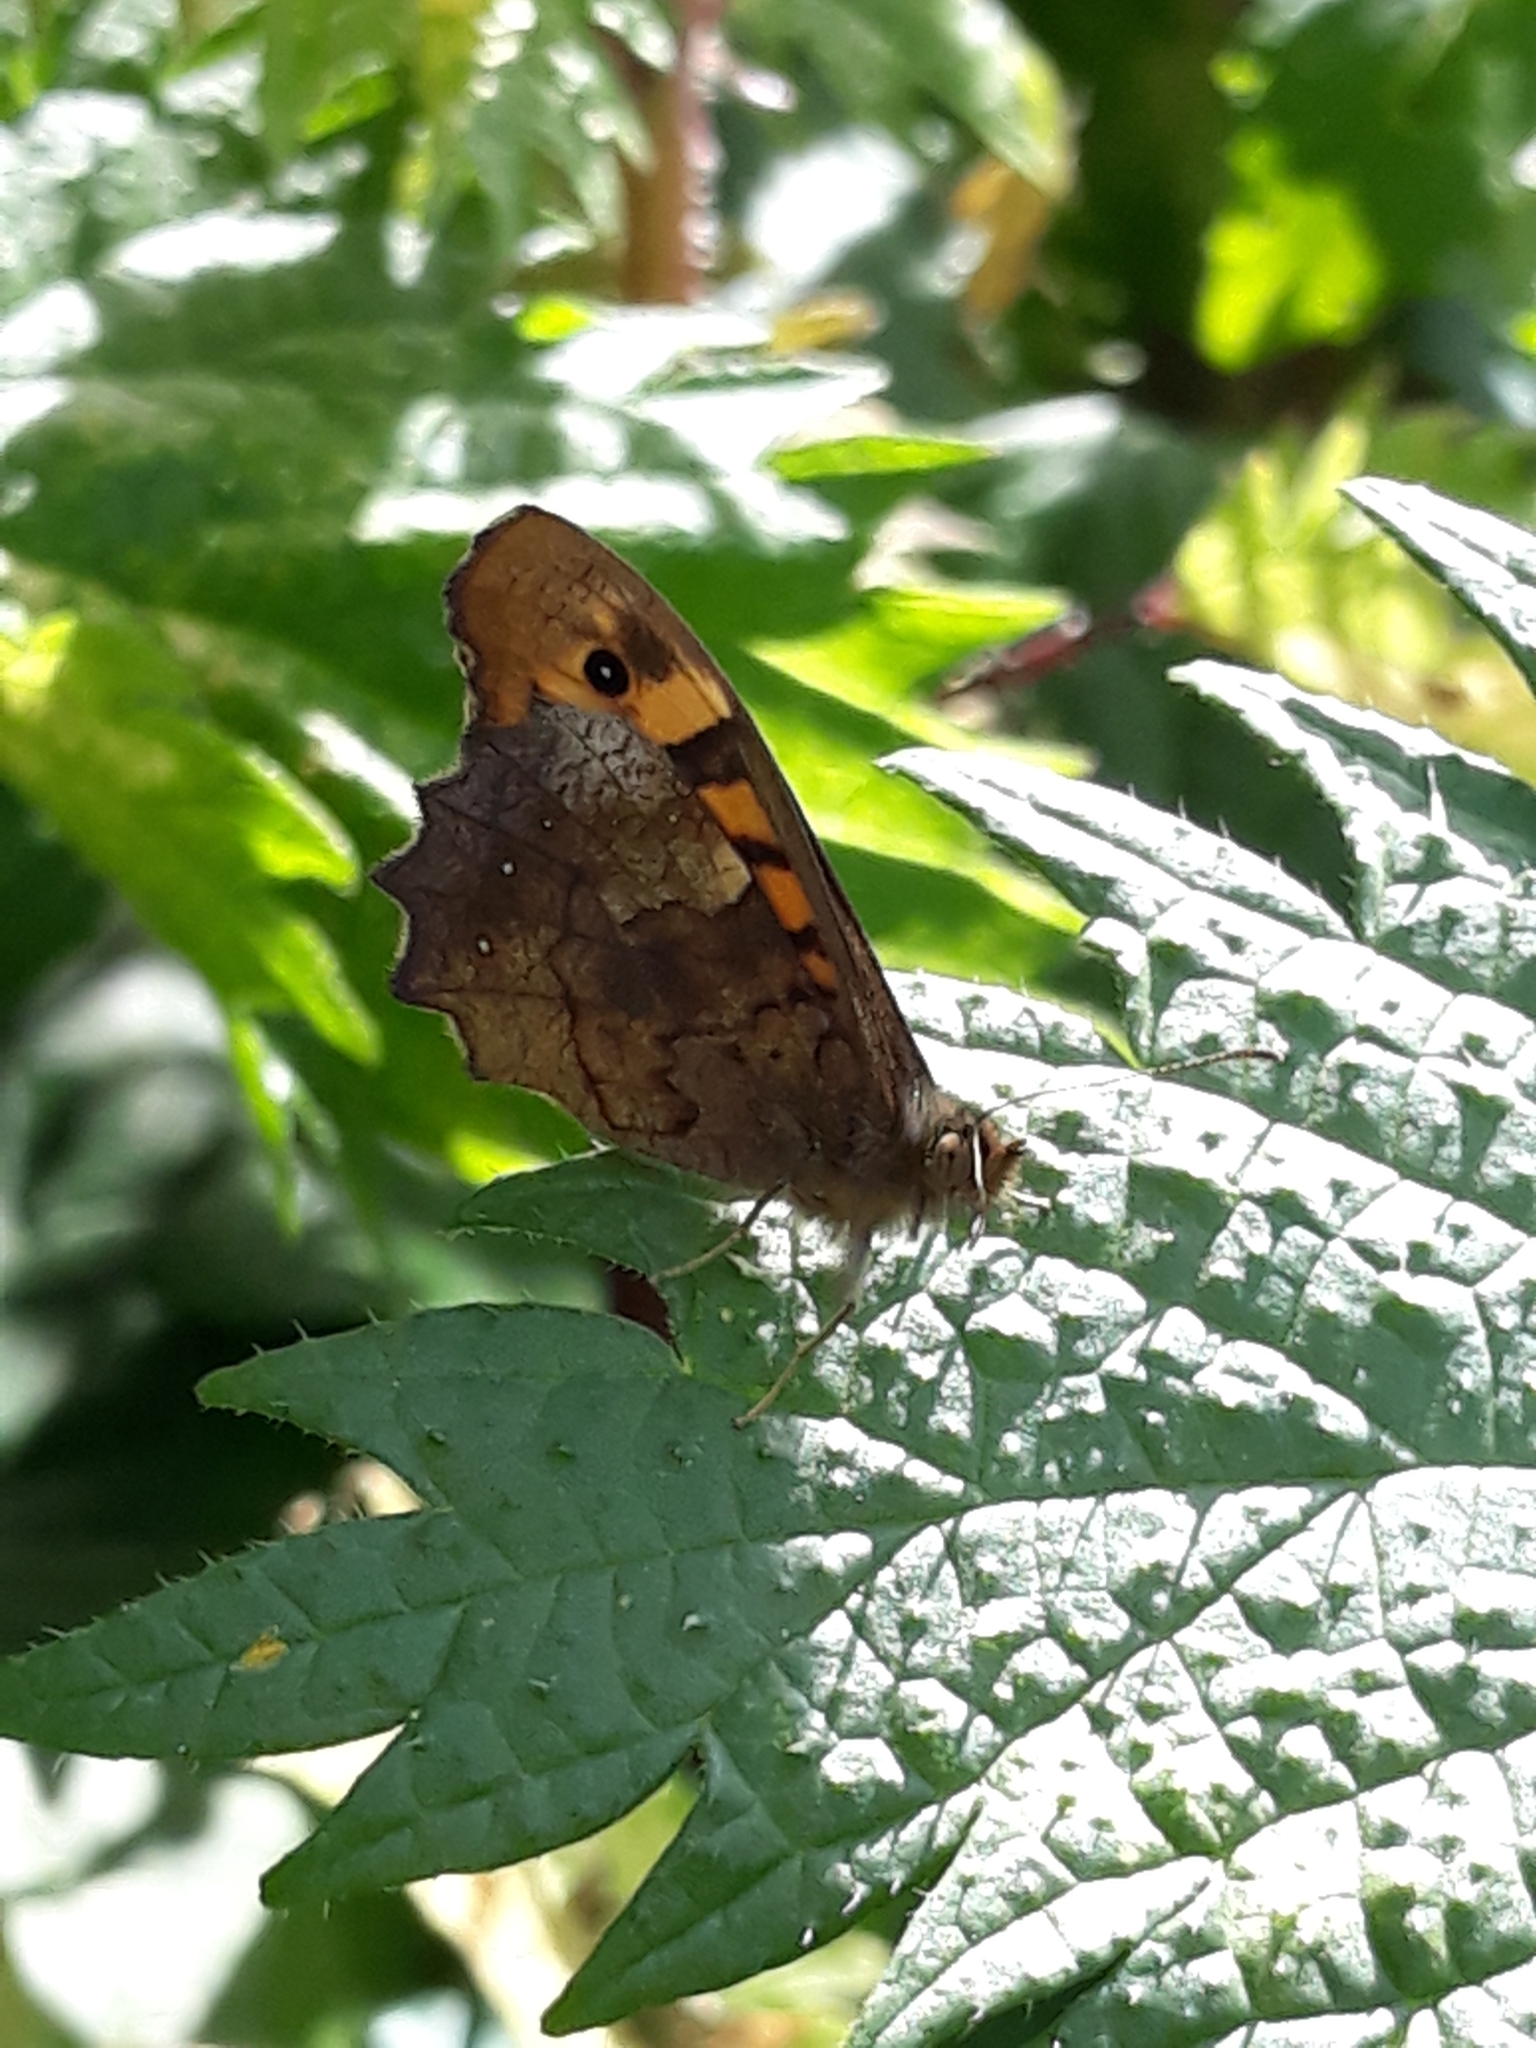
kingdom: Animalia
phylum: Arthropoda
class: Insecta
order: Lepidoptera
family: Nymphalidae
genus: Pararge
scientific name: Pararge aegeria
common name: Speckled wood
